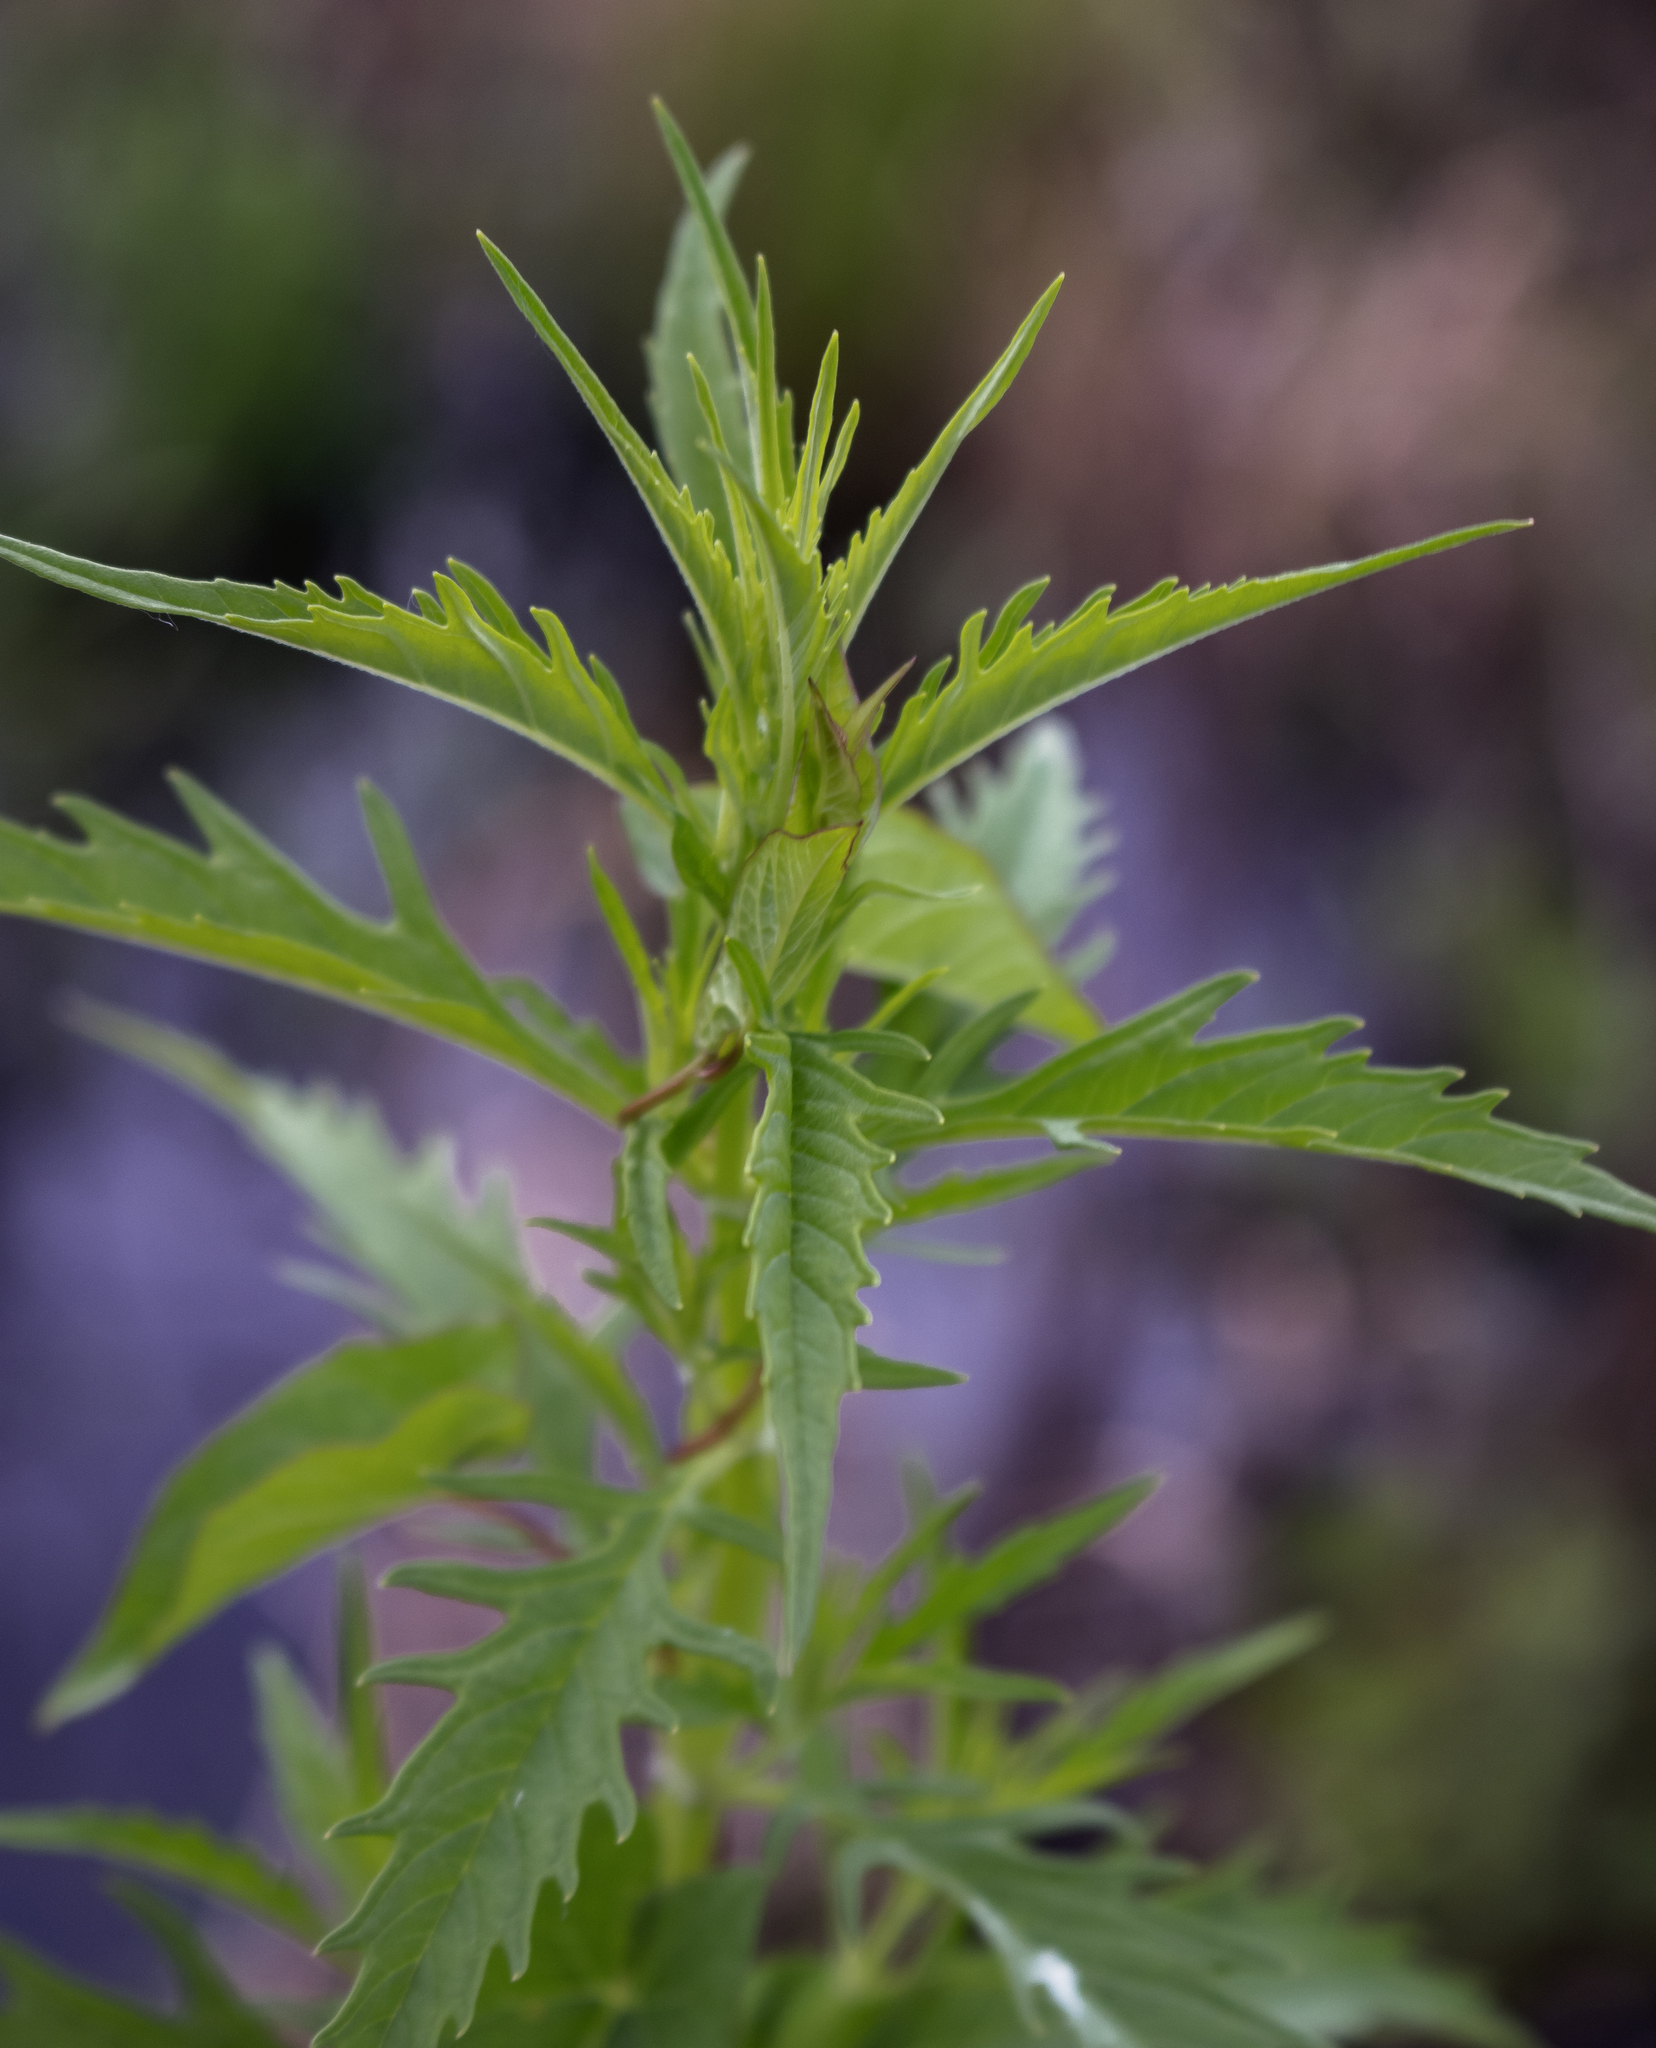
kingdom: Plantae
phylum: Tracheophyta
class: Magnoliopsida
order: Lamiales
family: Lamiaceae
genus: Lycopus
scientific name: Lycopus americanus
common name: American bugleweed
